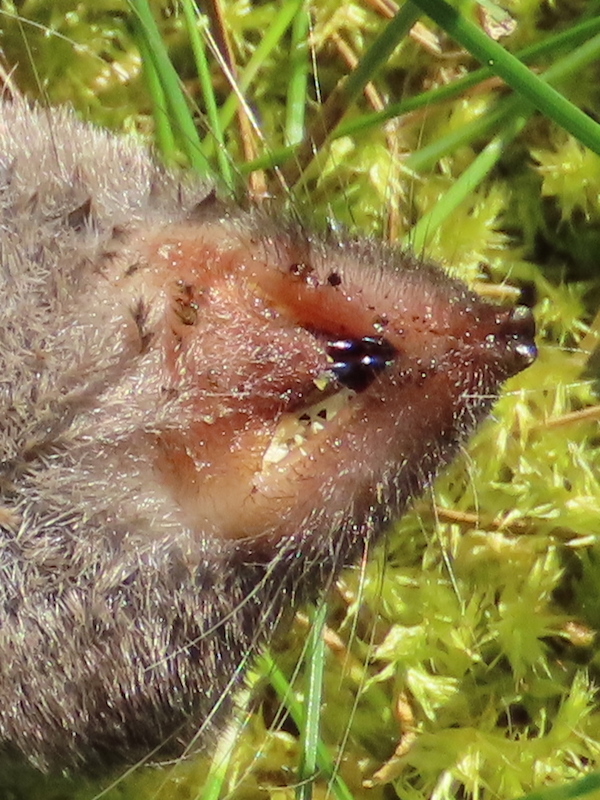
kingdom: Animalia
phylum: Chordata
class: Mammalia
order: Soricomorpha
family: Soricidae
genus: Blarina
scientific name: Blarina brevicauda
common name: Northern short-tailed shrew
